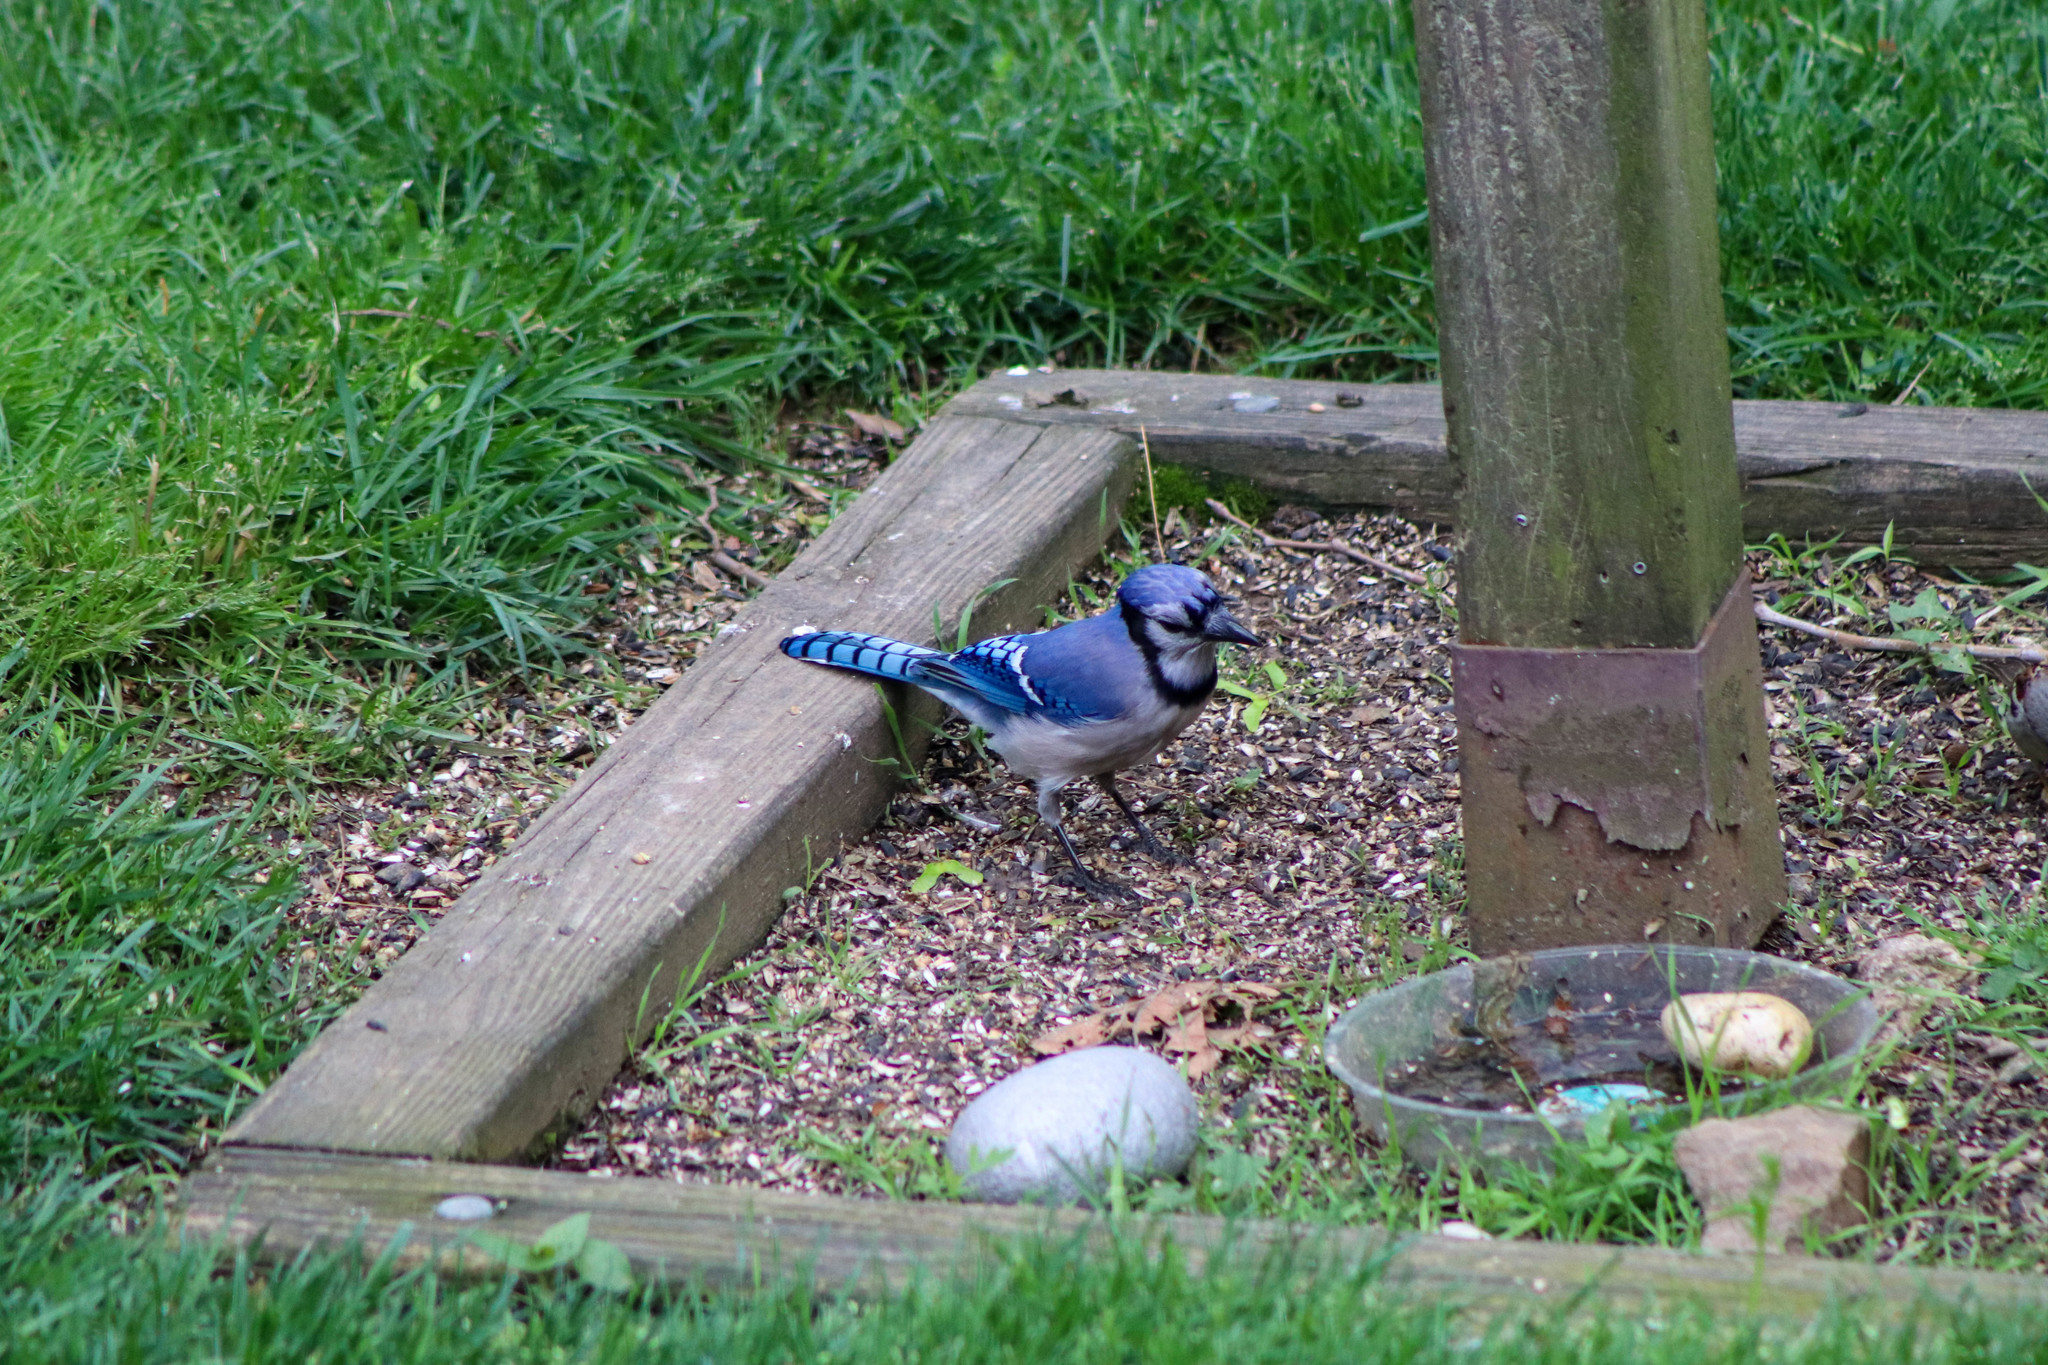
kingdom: Animalia
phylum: Chordata
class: Aves
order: Passeriformes
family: Corvidae
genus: Cyanocitta
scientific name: Cyanocitta cristata
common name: Blue jay
